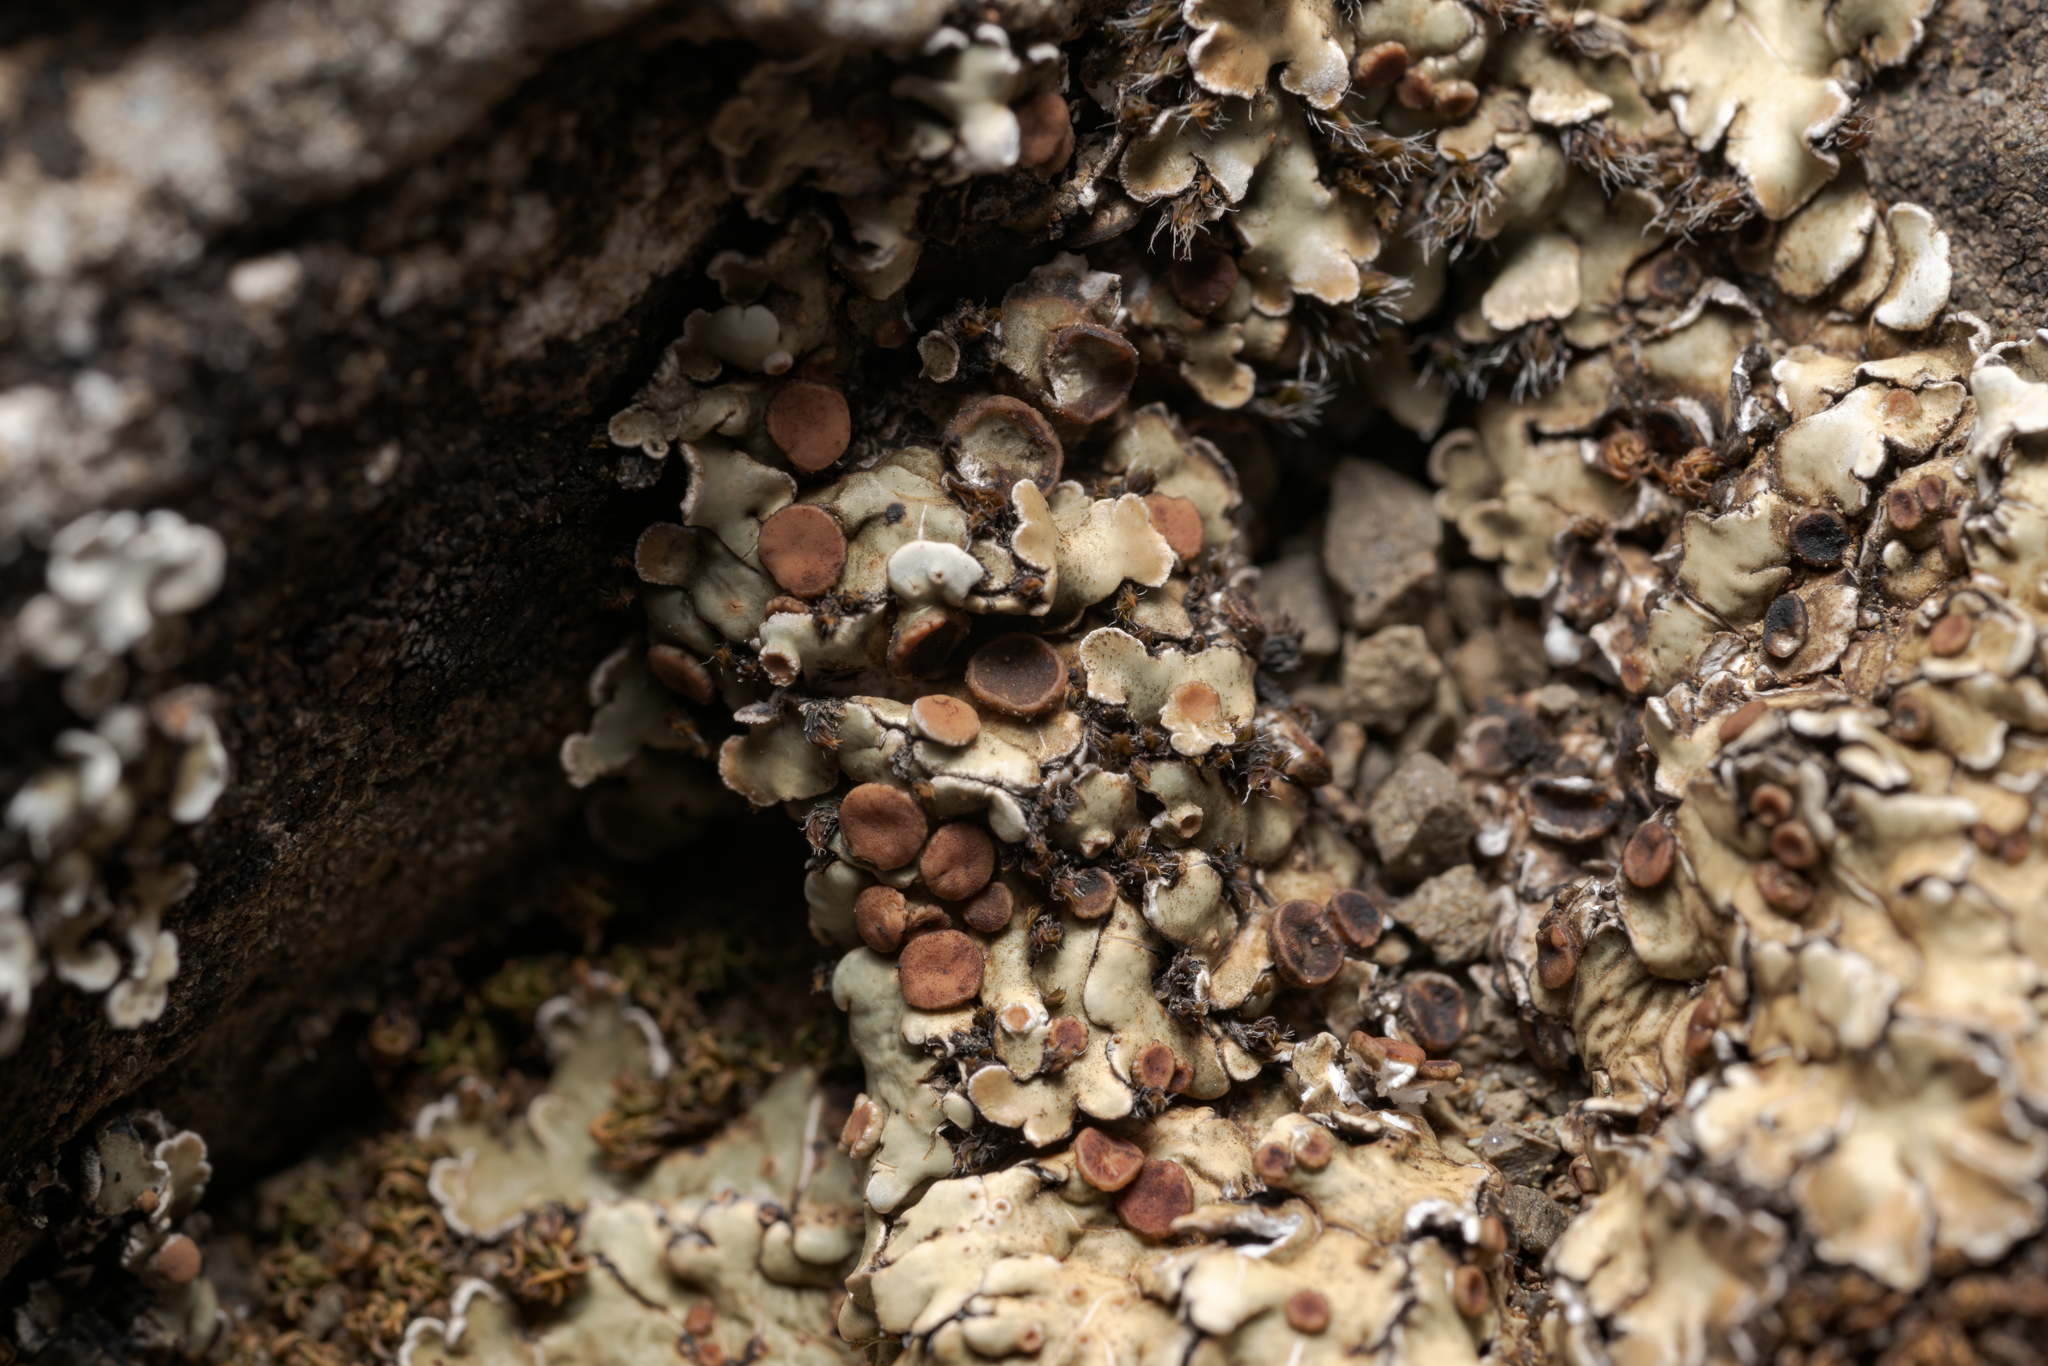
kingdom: Fungi
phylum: Ascomycota
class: Lecanoromycetes
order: Lecanorales
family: Stereocaulaceae
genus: Squamarina
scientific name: Squamarina cartilaginea
